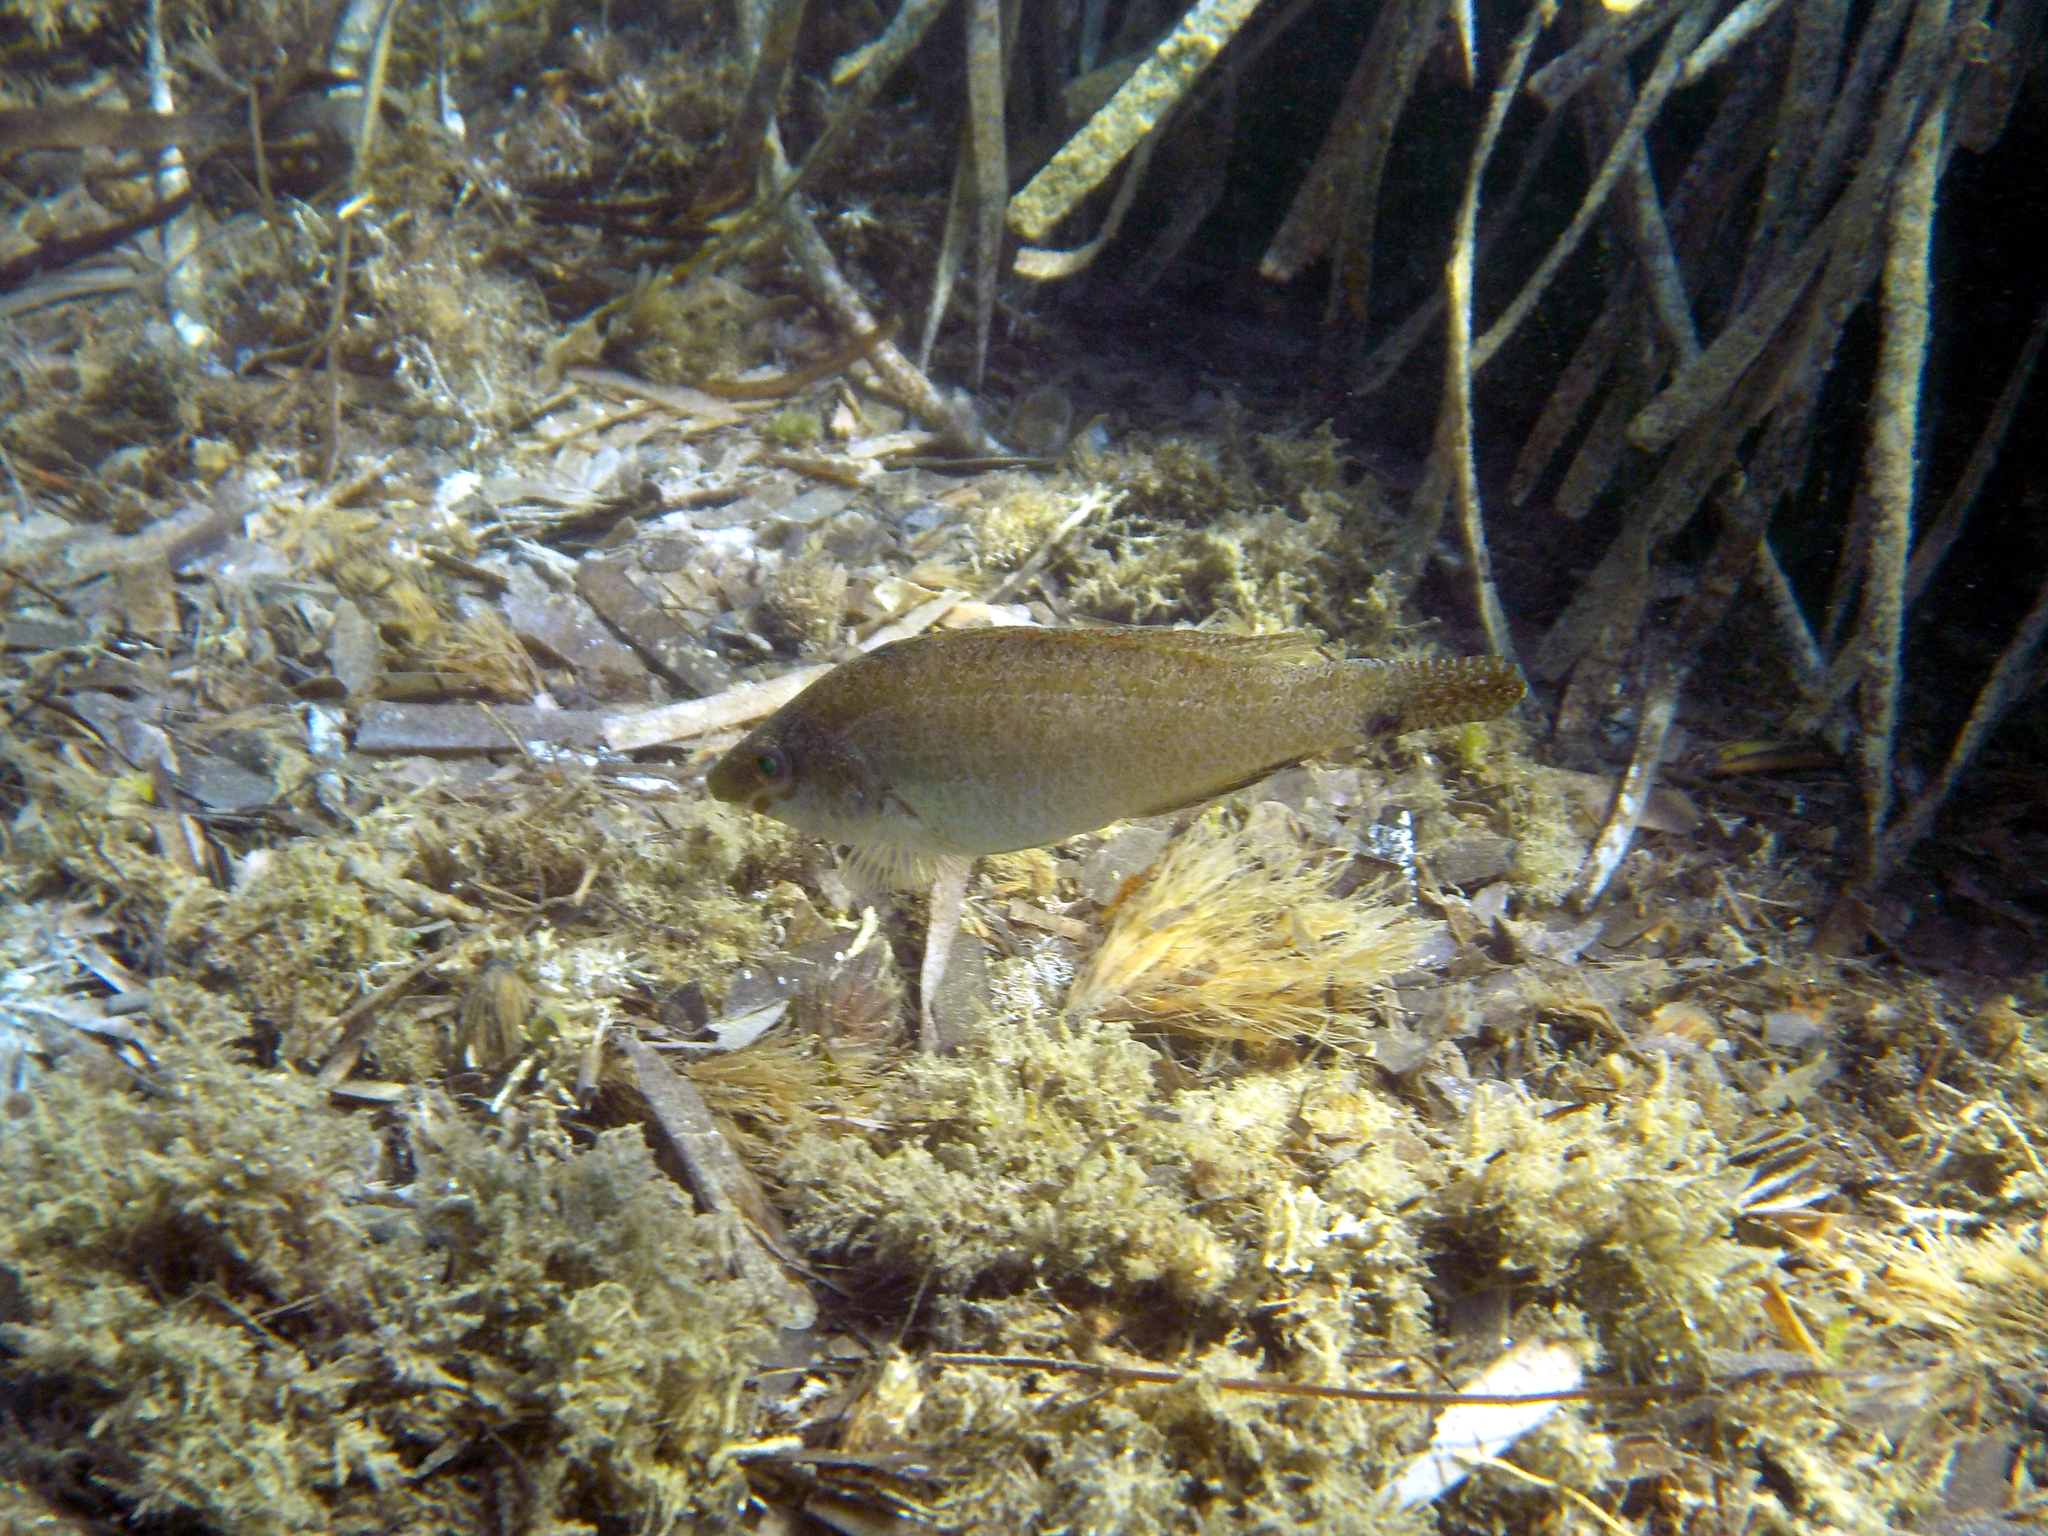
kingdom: Animalia
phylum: Chordata
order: Perciformes
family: Labridae
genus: Symphodus
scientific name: Symphodus cinereus
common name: Grey wrasse
